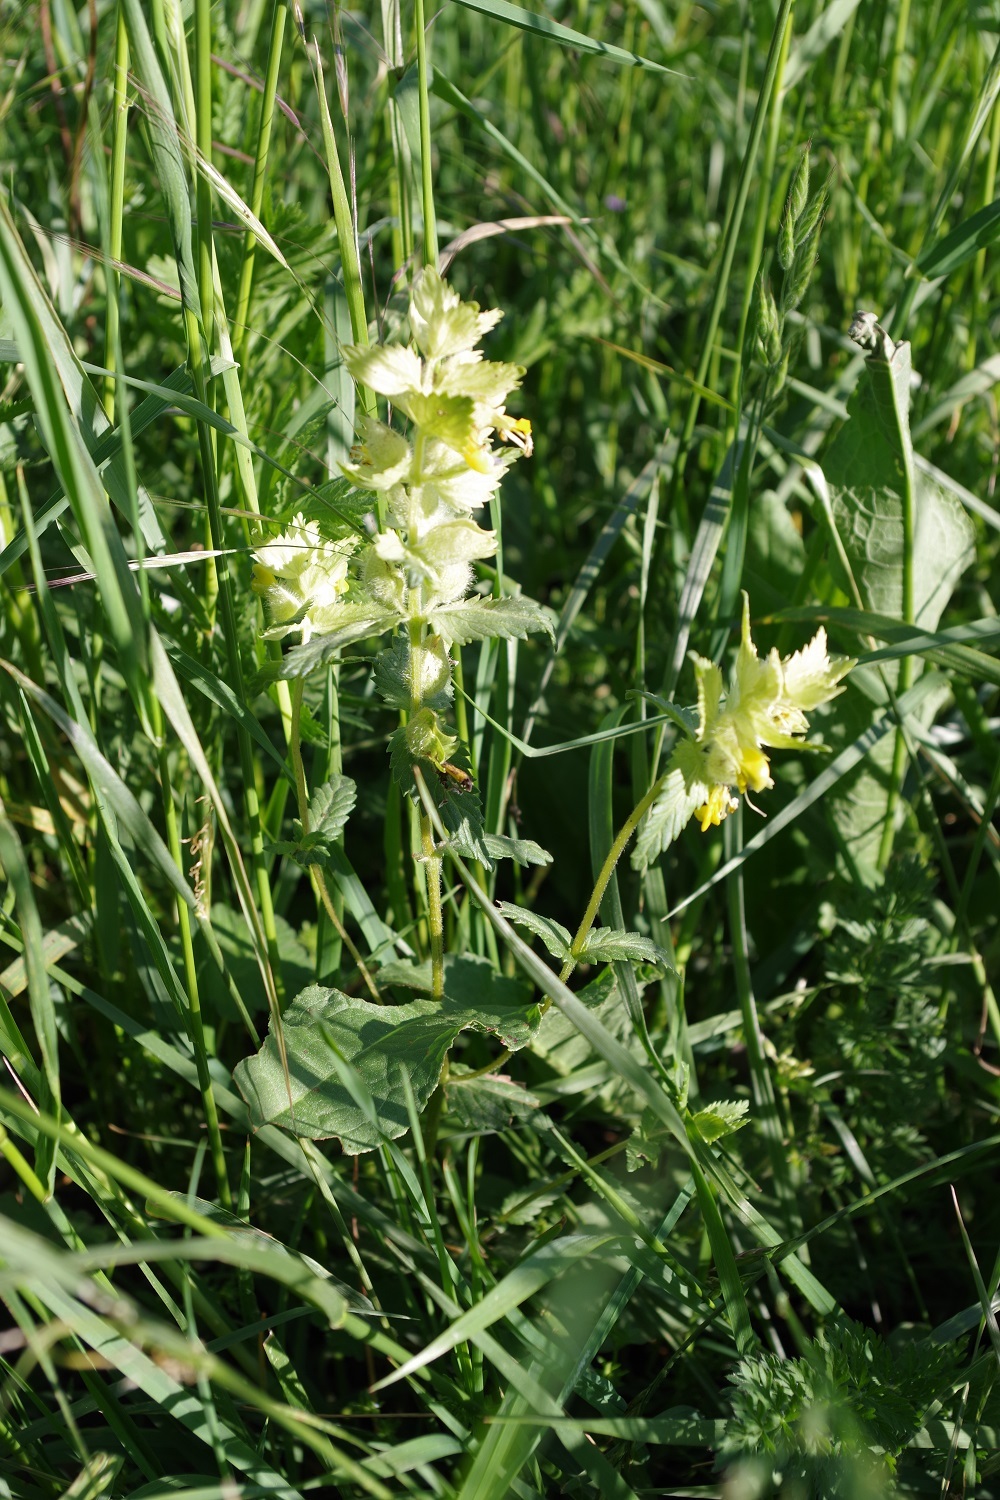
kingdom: Plantae
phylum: Tracheophyta
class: Magnoliopsida
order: Lamiales
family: Orobanchaceae
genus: Rhinanthus
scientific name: Rhinanthus alectorolophus
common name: Greater yellow-rattle
